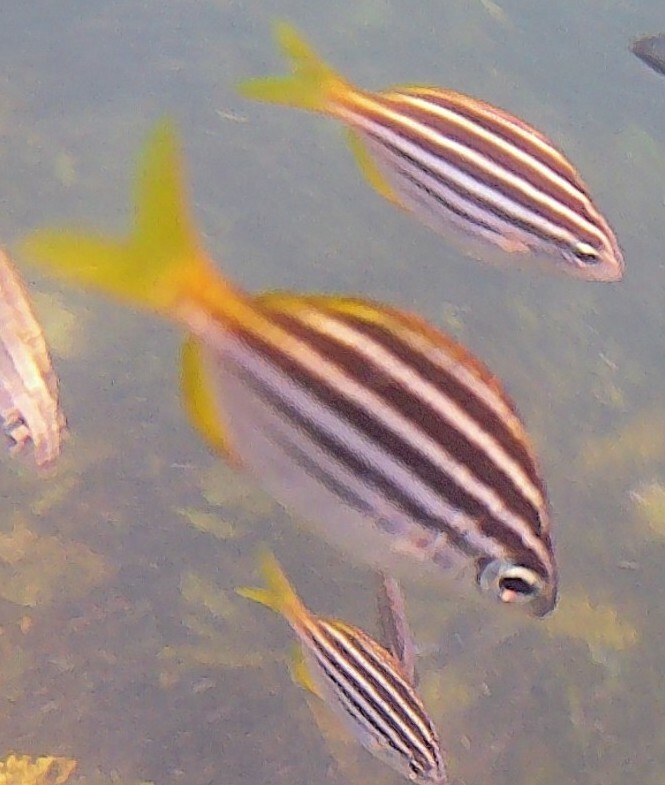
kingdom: Animalia
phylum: Chordata
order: Perciformes
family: Kyphosidae
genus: Atypichthys
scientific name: Atypichthys strigatus
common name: Australian mado
